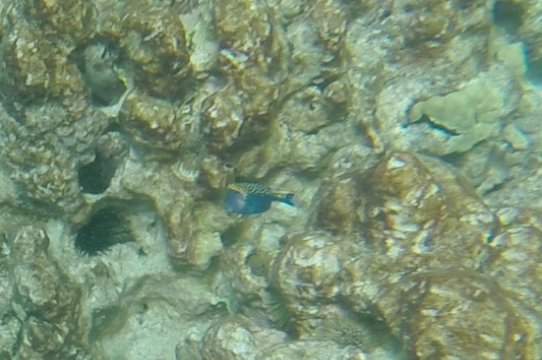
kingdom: Animalia
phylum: Chordata
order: Tetraodontiformes
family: Ostraciidae
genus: Ostracion
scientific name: Ostracion meleagris
